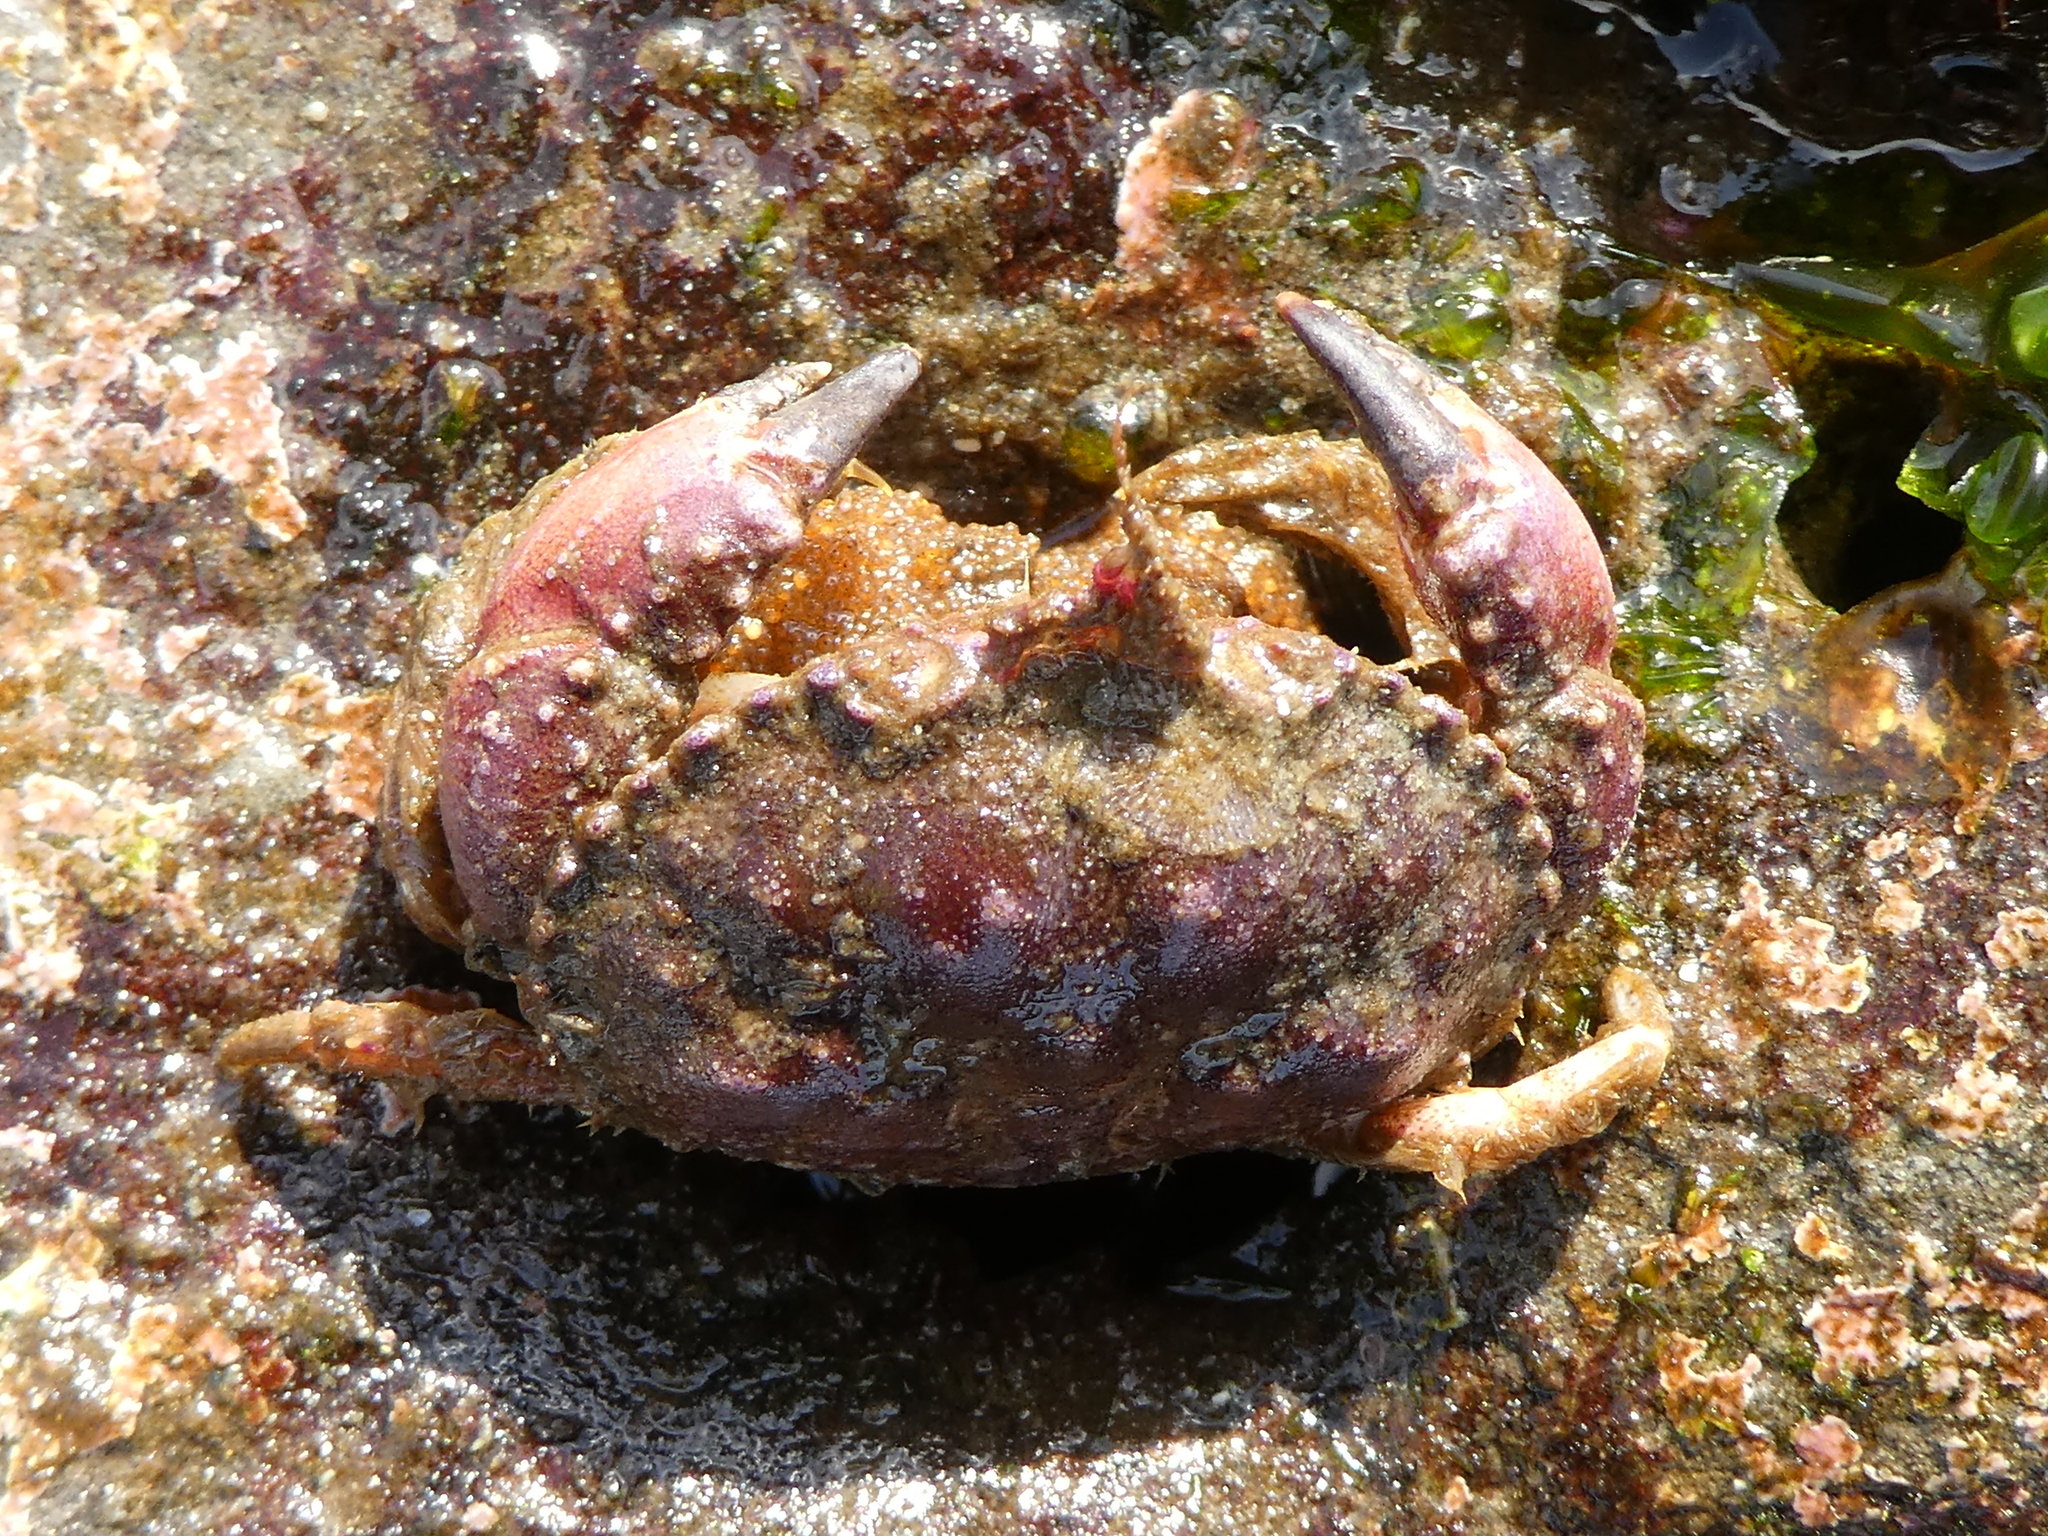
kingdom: Animalia
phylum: Arthropoda
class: Malacostraca
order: Decapoda
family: Cancridae
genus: Glebocarcinus
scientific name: Glebocarcinus oregonensis
